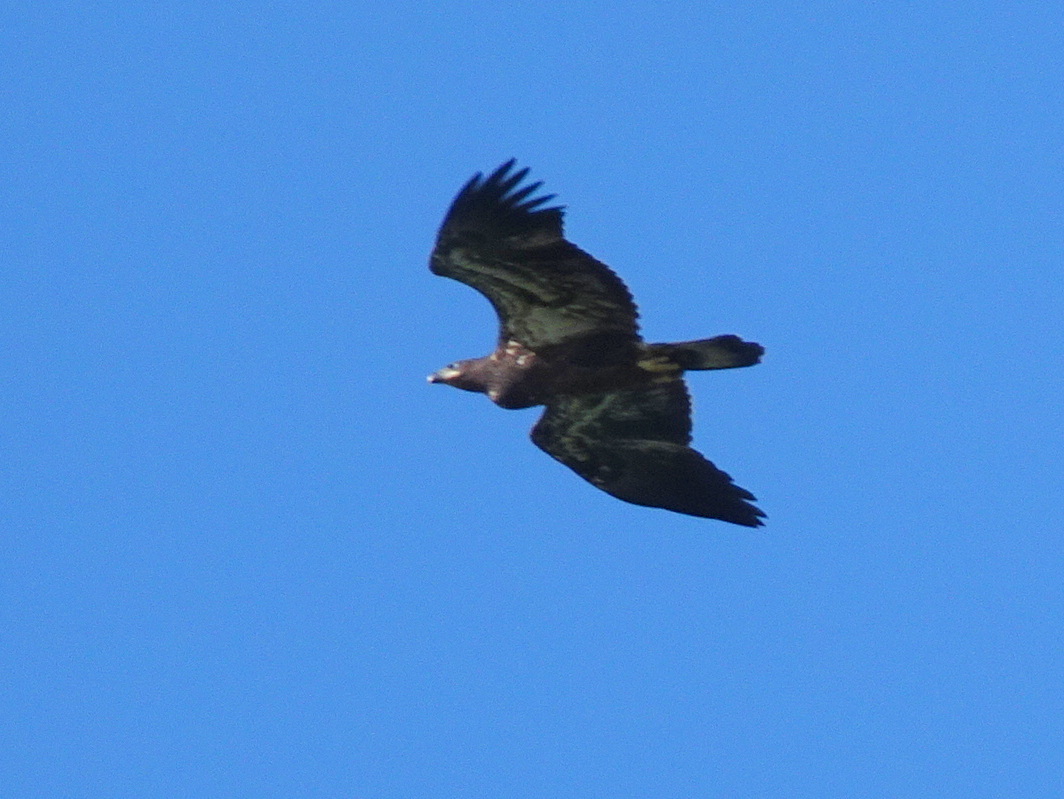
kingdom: Animalia
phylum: Chordata
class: Aves
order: Accipitriformes
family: Accipitridae
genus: Haliaeetus
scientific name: Haliaeetus leucocephalus
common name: Bald eagle
